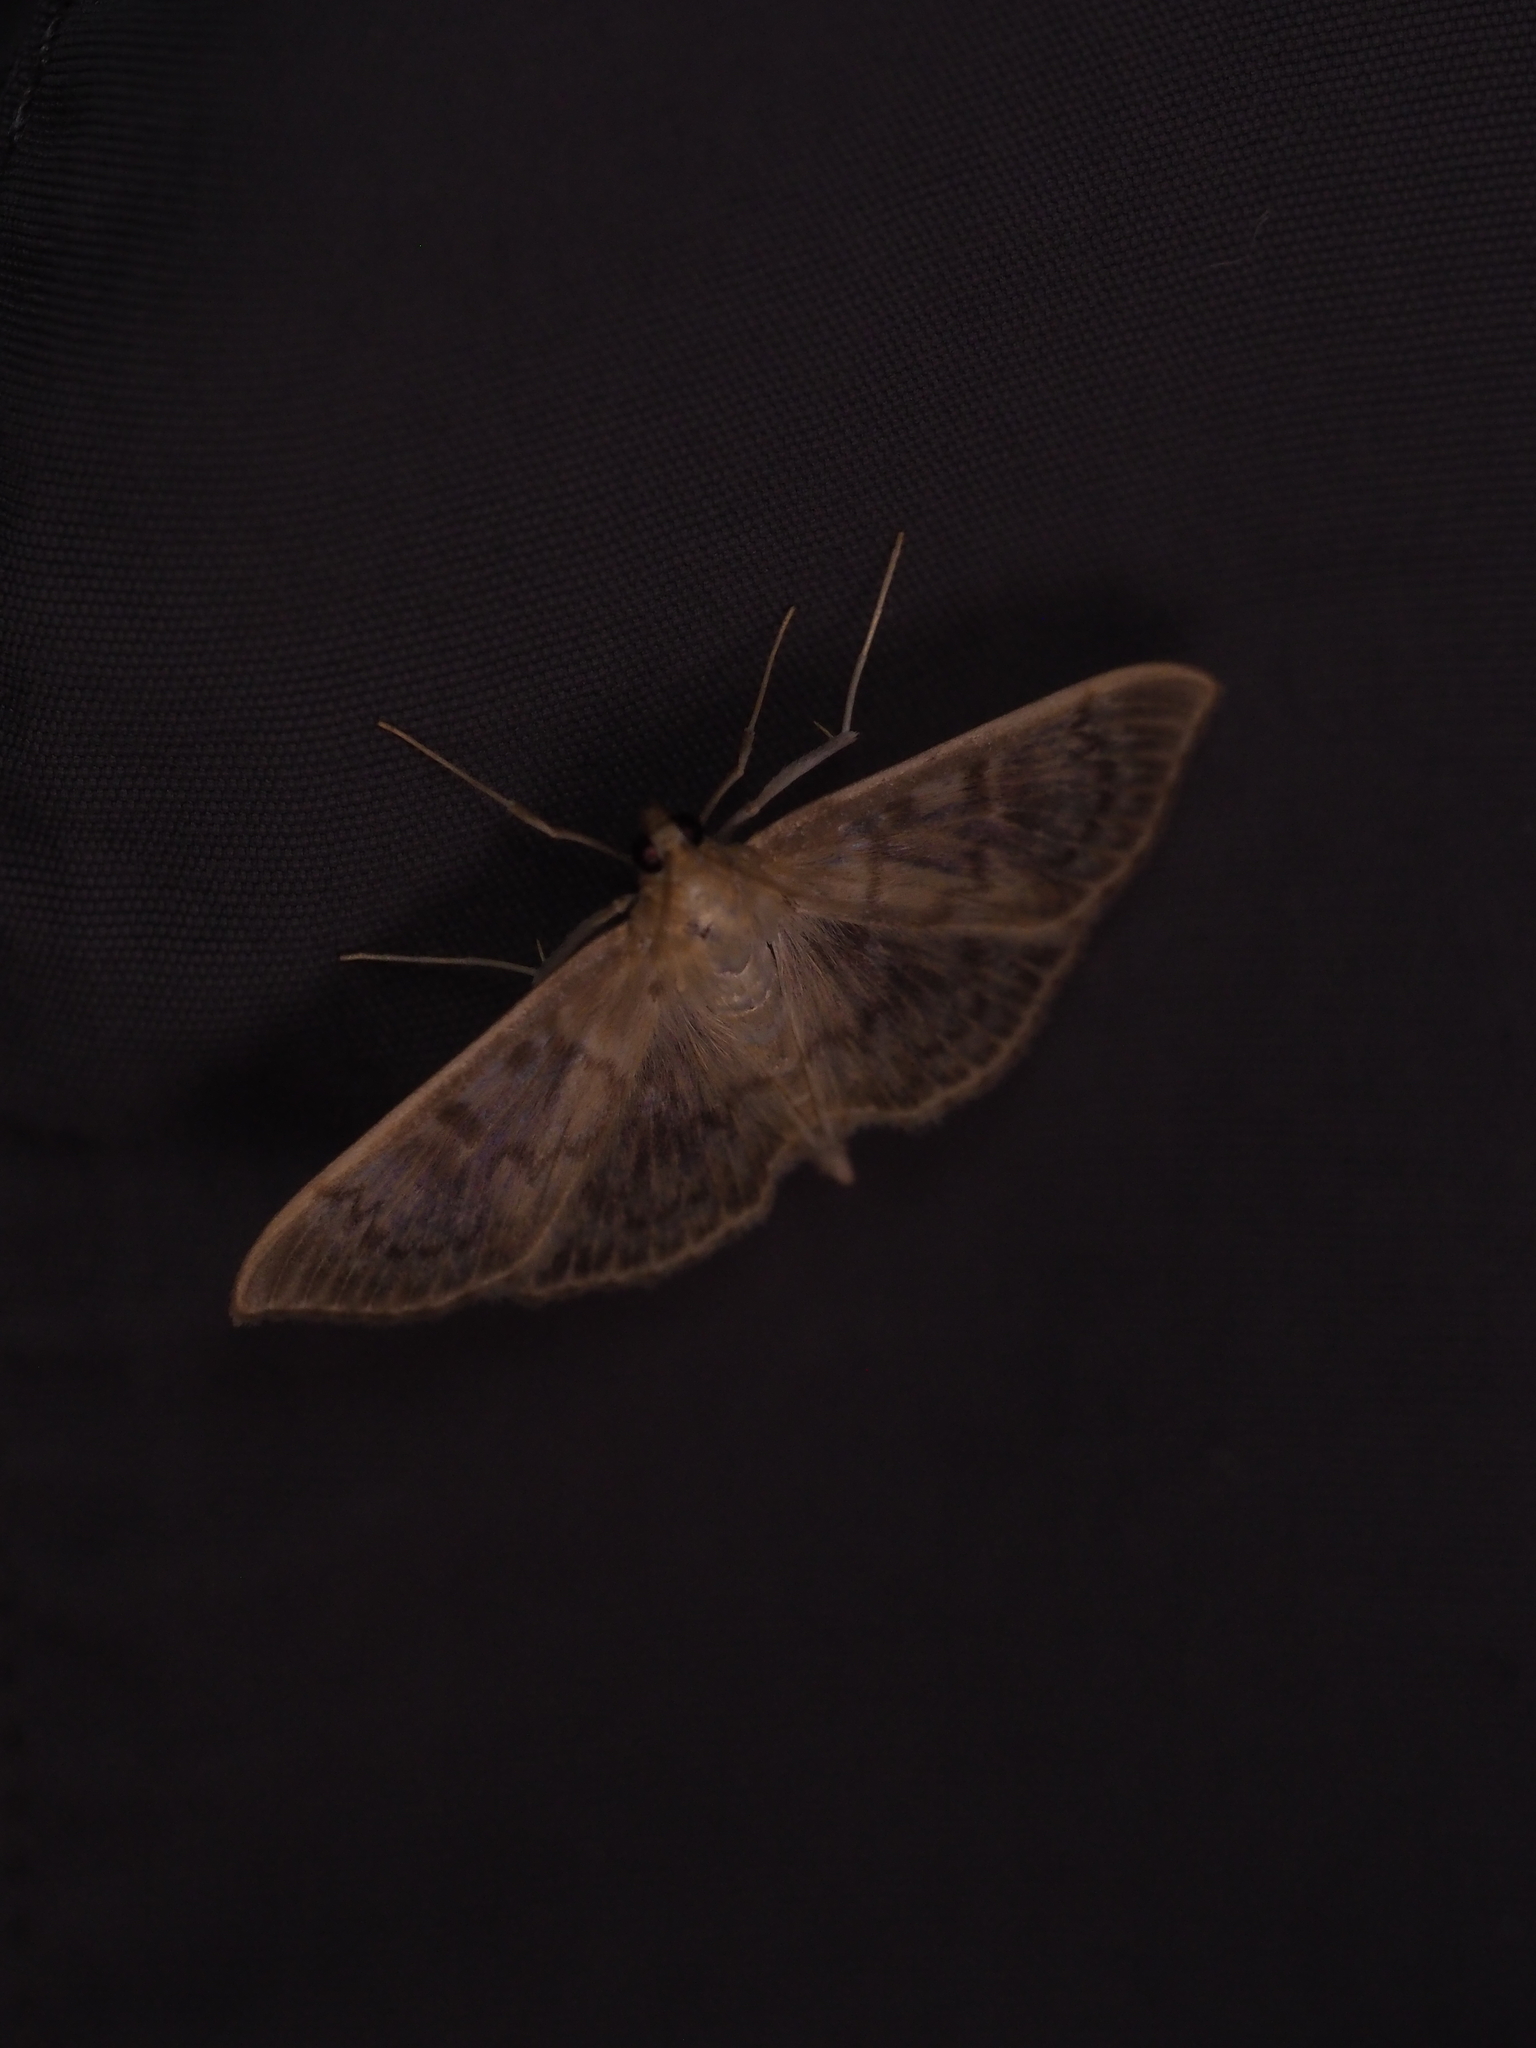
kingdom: Animalia
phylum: Arthropoda
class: Insecta
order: Lepidoptera
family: Crambidae
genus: Patania
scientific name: Patania ruralis
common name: Mother of pearl
